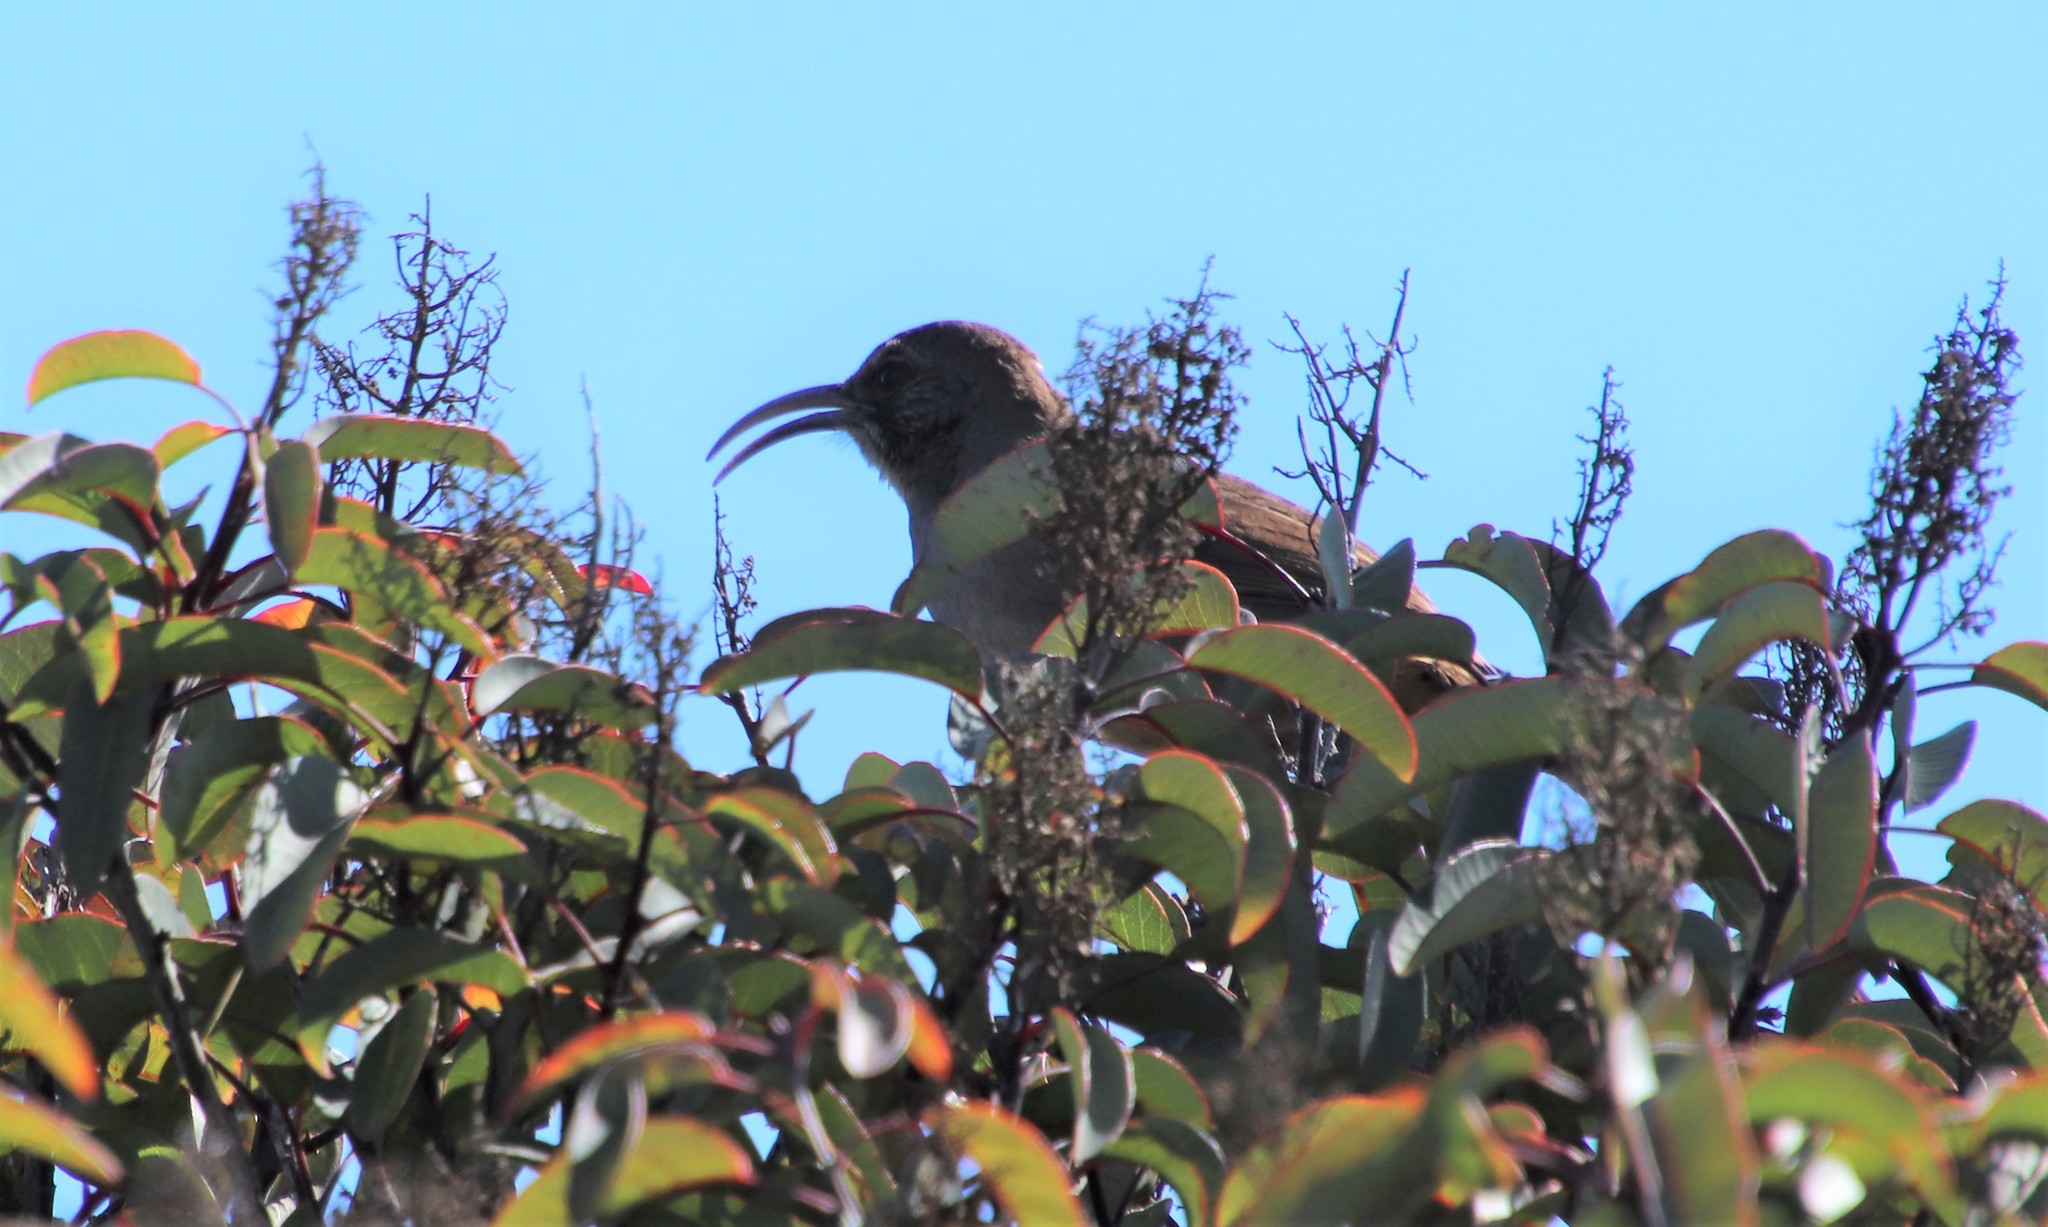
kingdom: Animalia
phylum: Chordata
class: Aves
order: Passeriformes
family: Mimidae
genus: Toxostoma
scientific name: Toxostoma redivivum
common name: California thrasher
